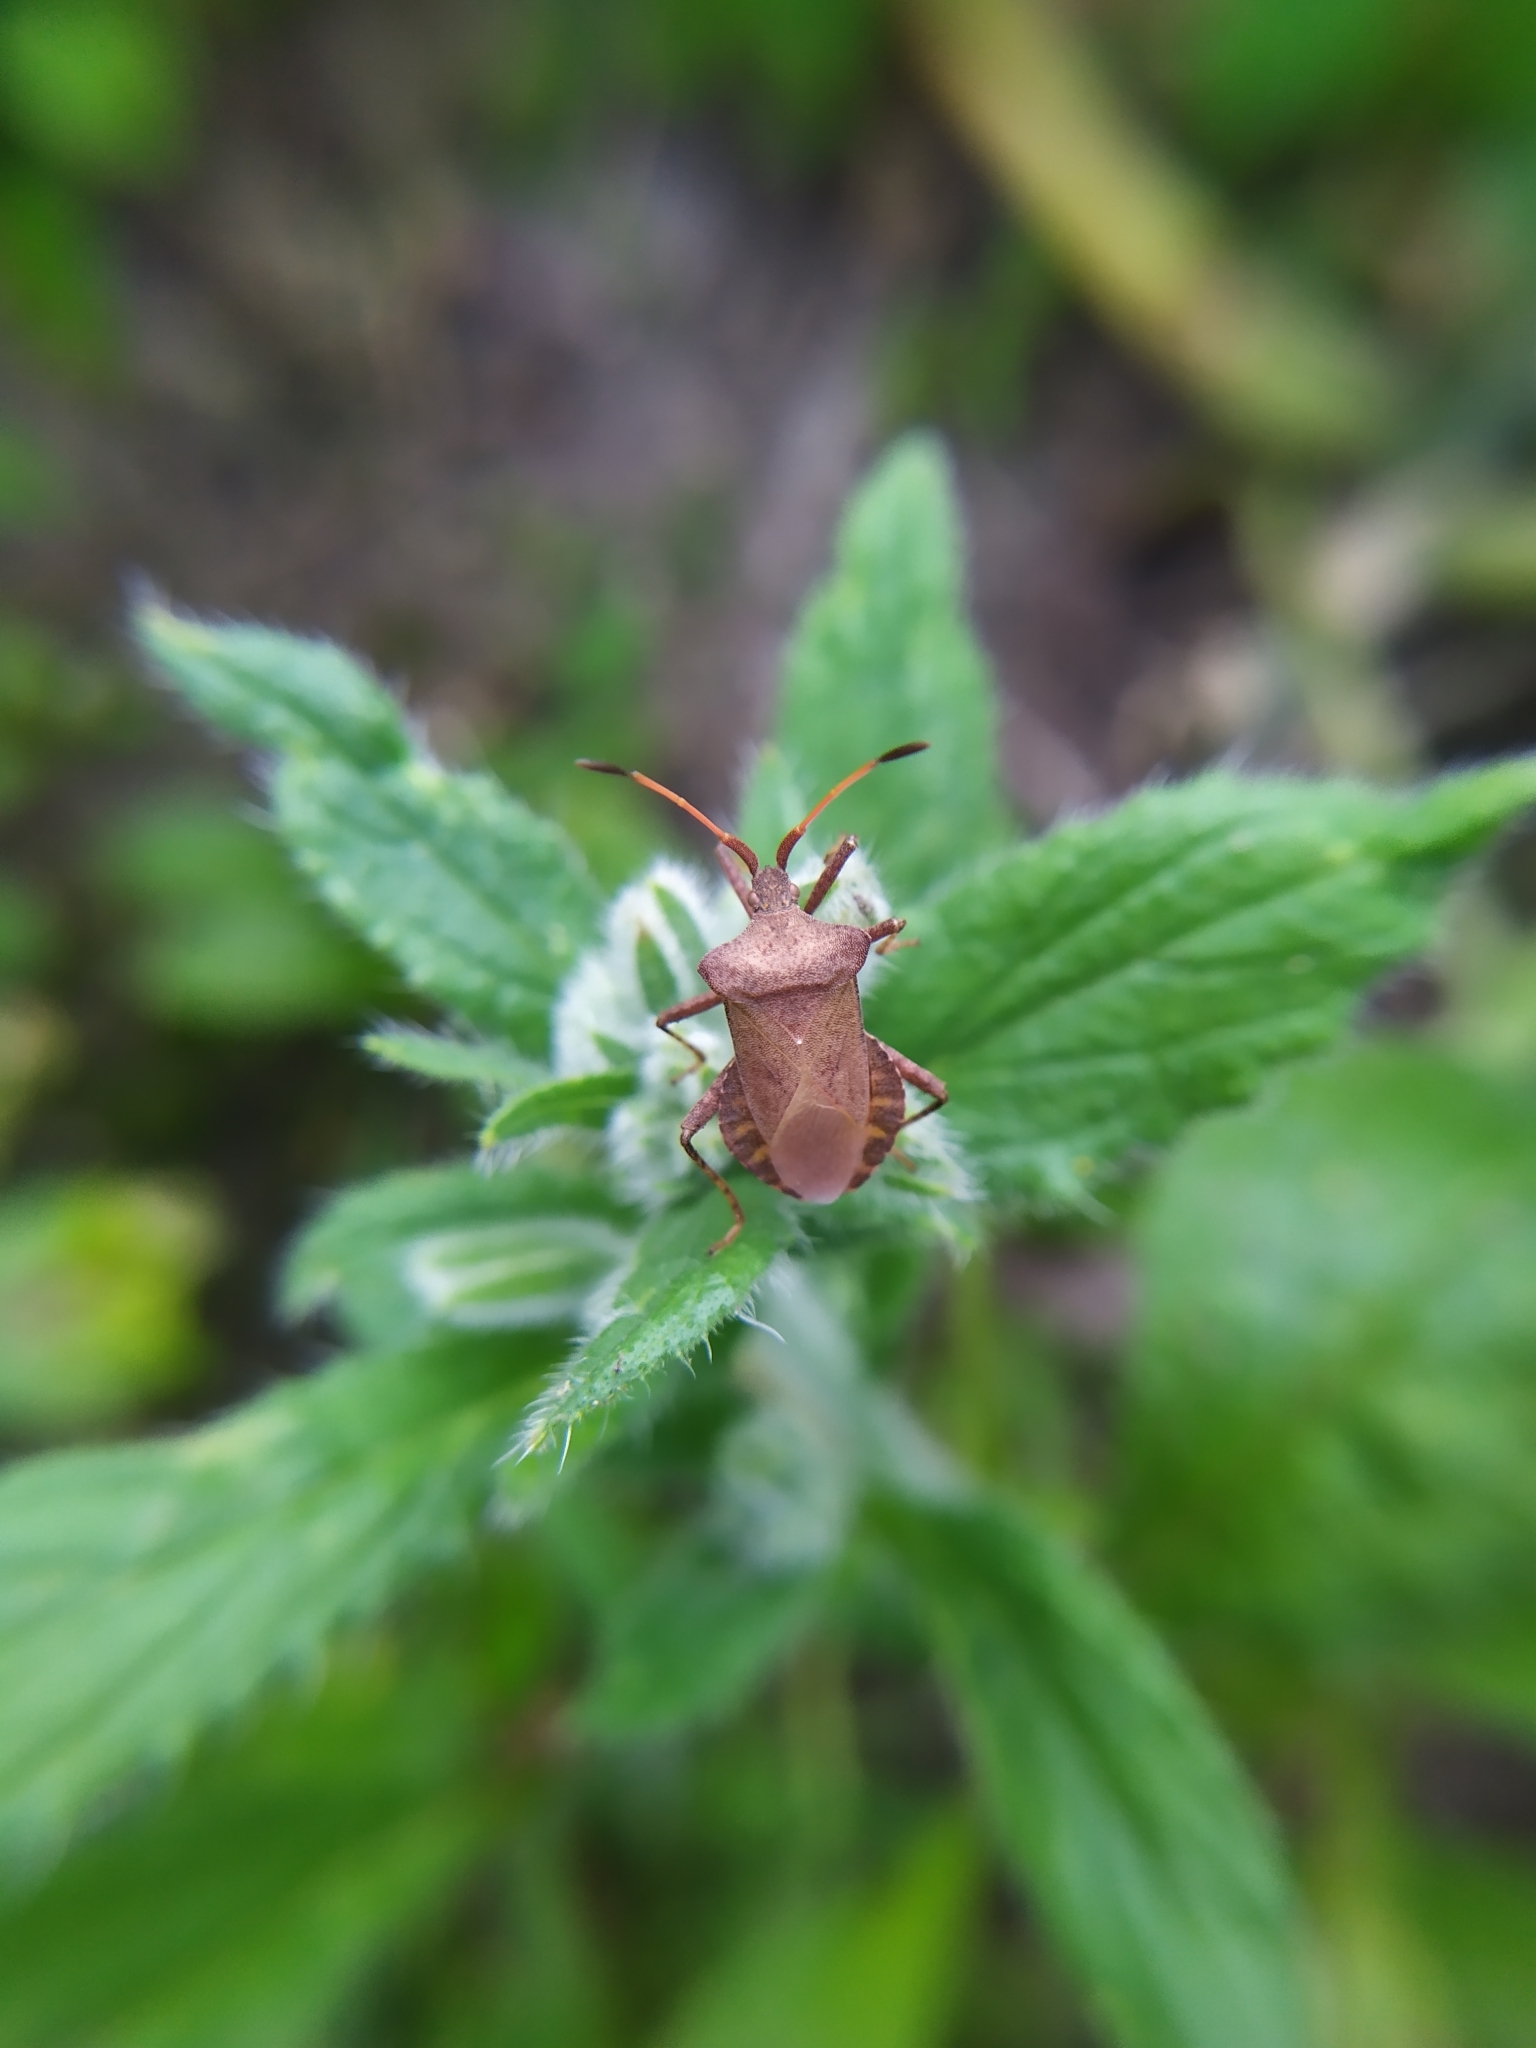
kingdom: Animalia
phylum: Arthropoda
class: Insecta
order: Hemiptera
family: Coreidae
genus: Coreus
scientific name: Coreus marginatus
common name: Dock bug
